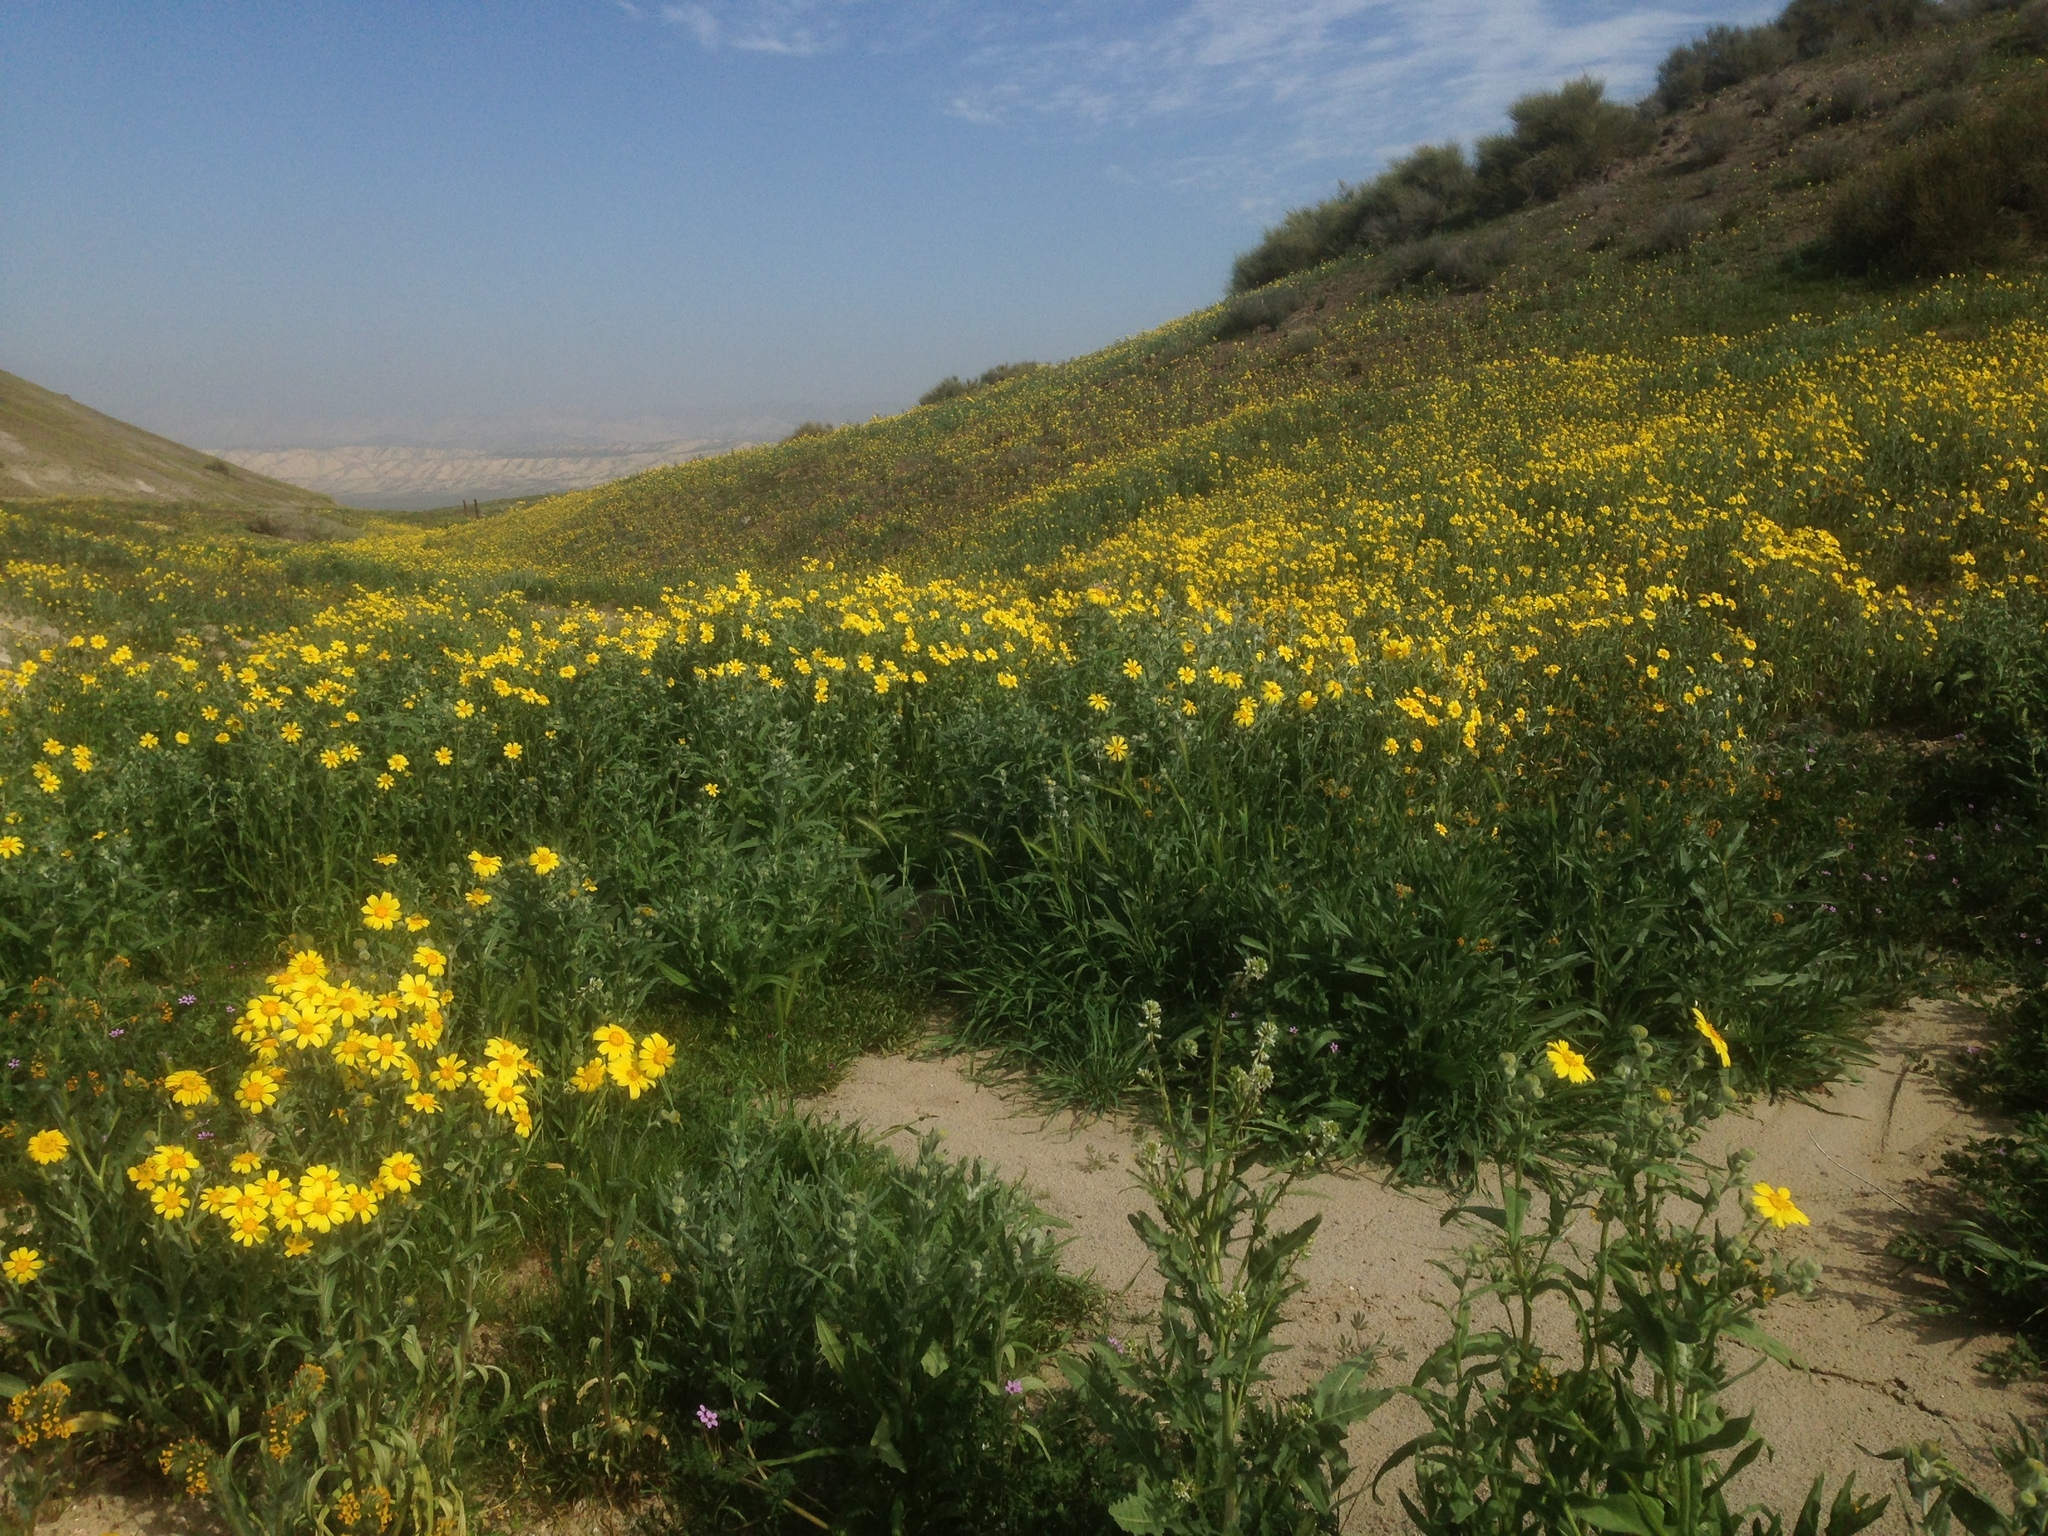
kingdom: Plantae
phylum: Tracheophyta
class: Magnoliopsida
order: Asterales
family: Asteraceae
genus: Monolopia
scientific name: Monolopia lanceolata
